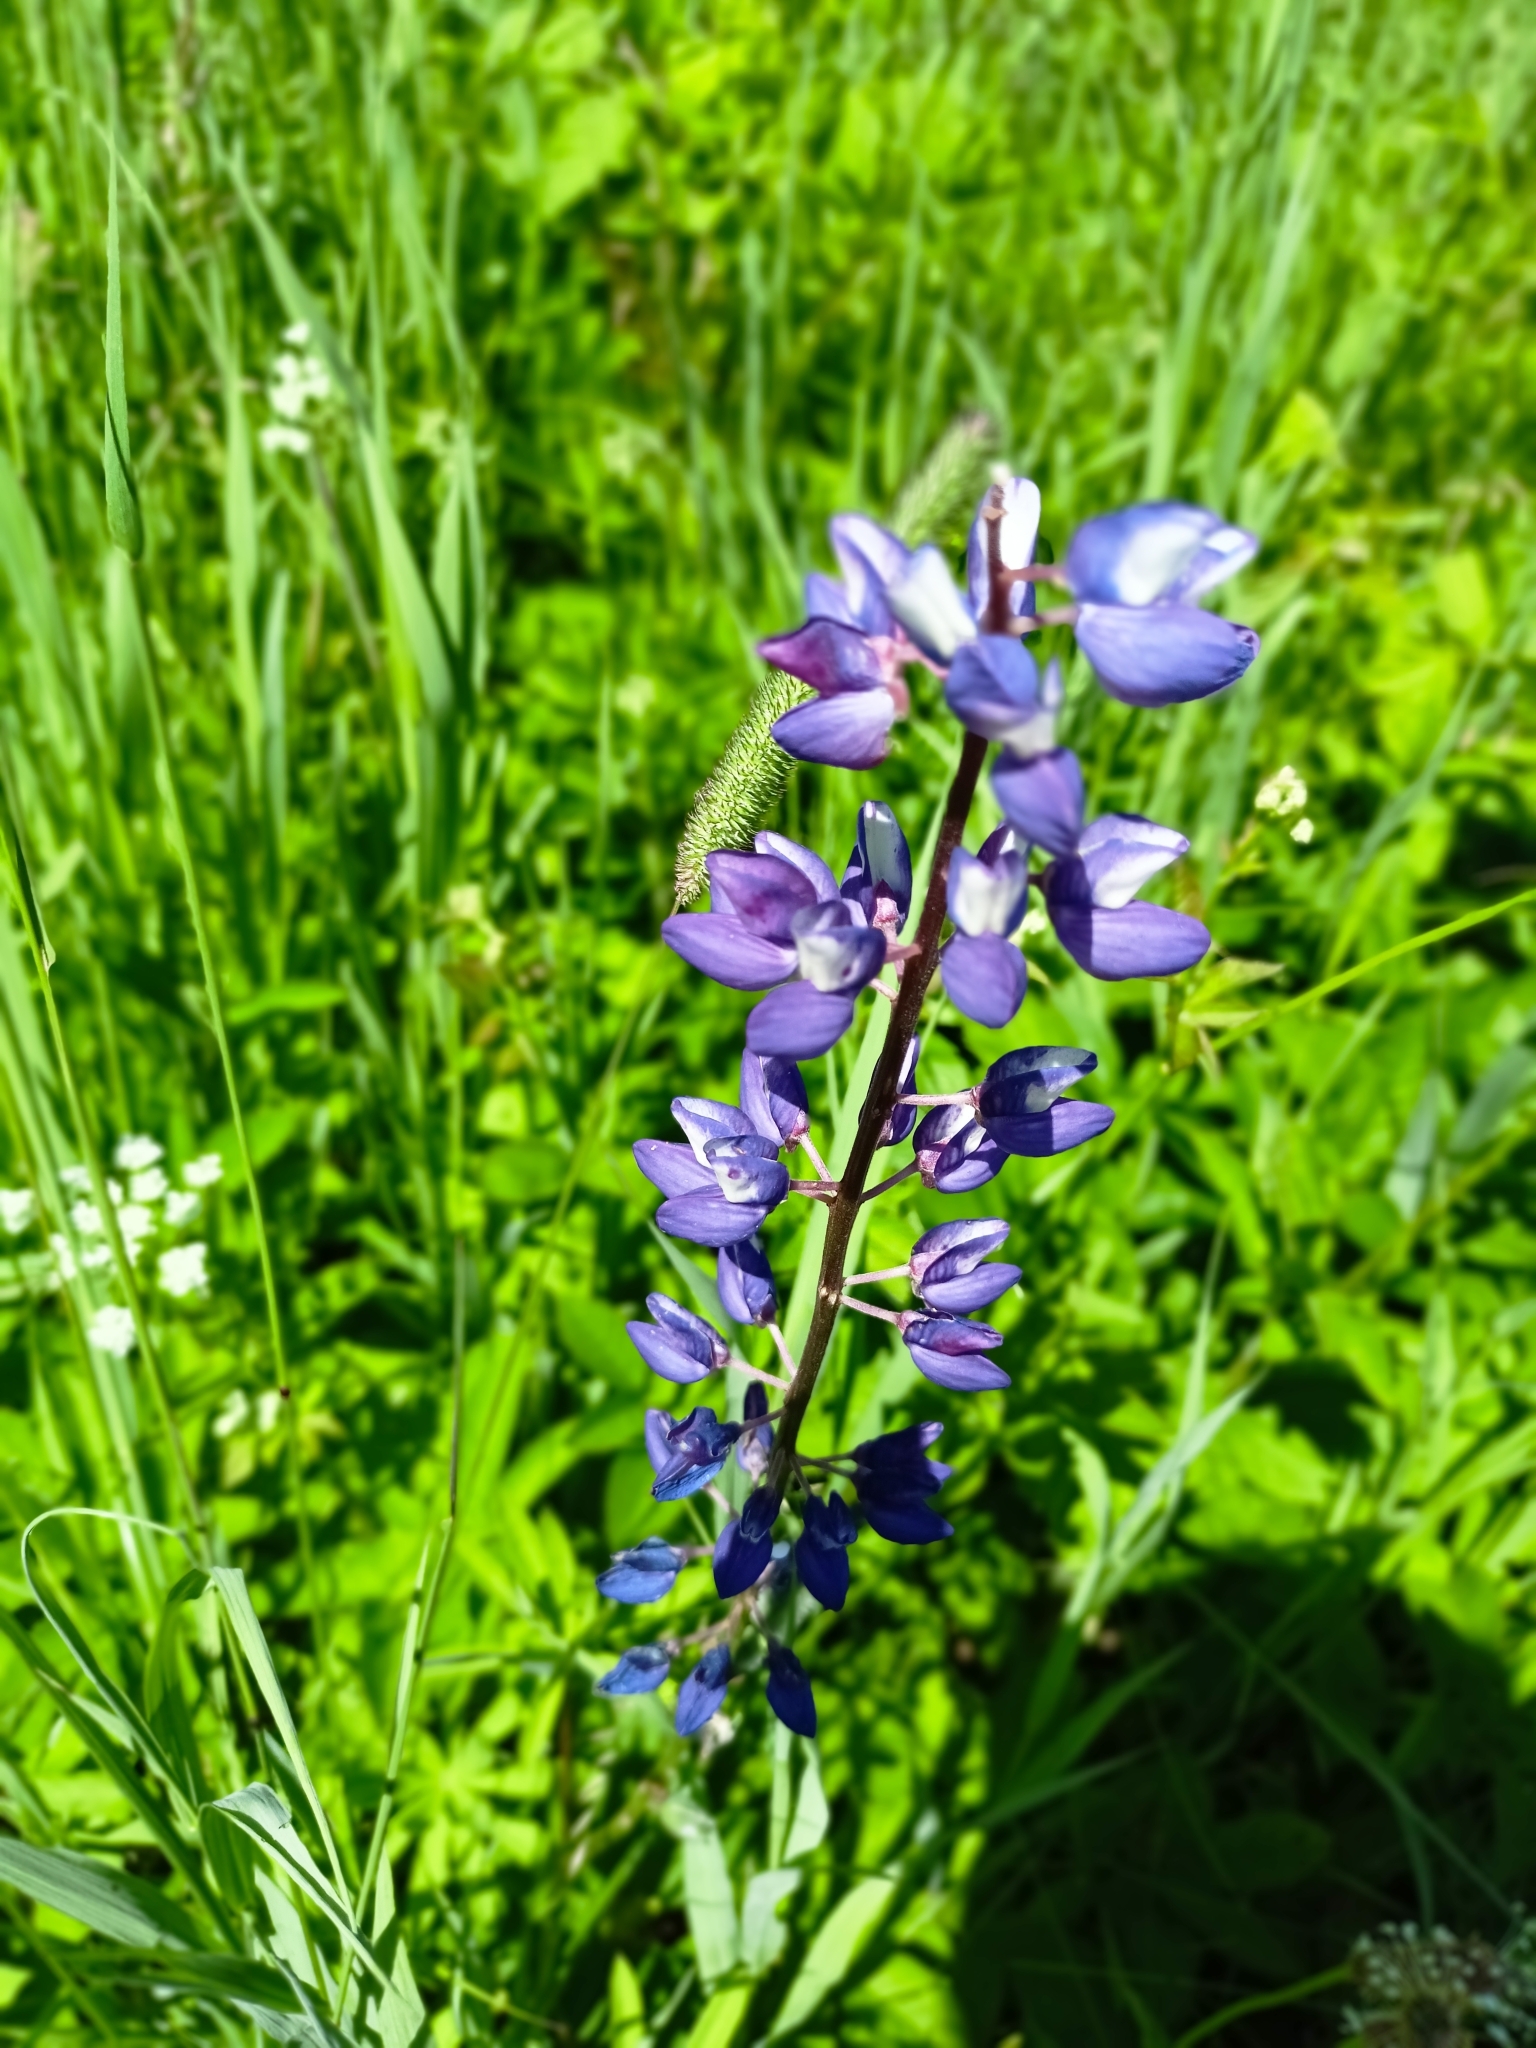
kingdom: Plantae
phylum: Tracheophyta
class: Magnoliopsida
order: Fabales
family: Fabaceae
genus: Lupinus
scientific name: Lupinus polyphyllus
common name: Garden lupin
